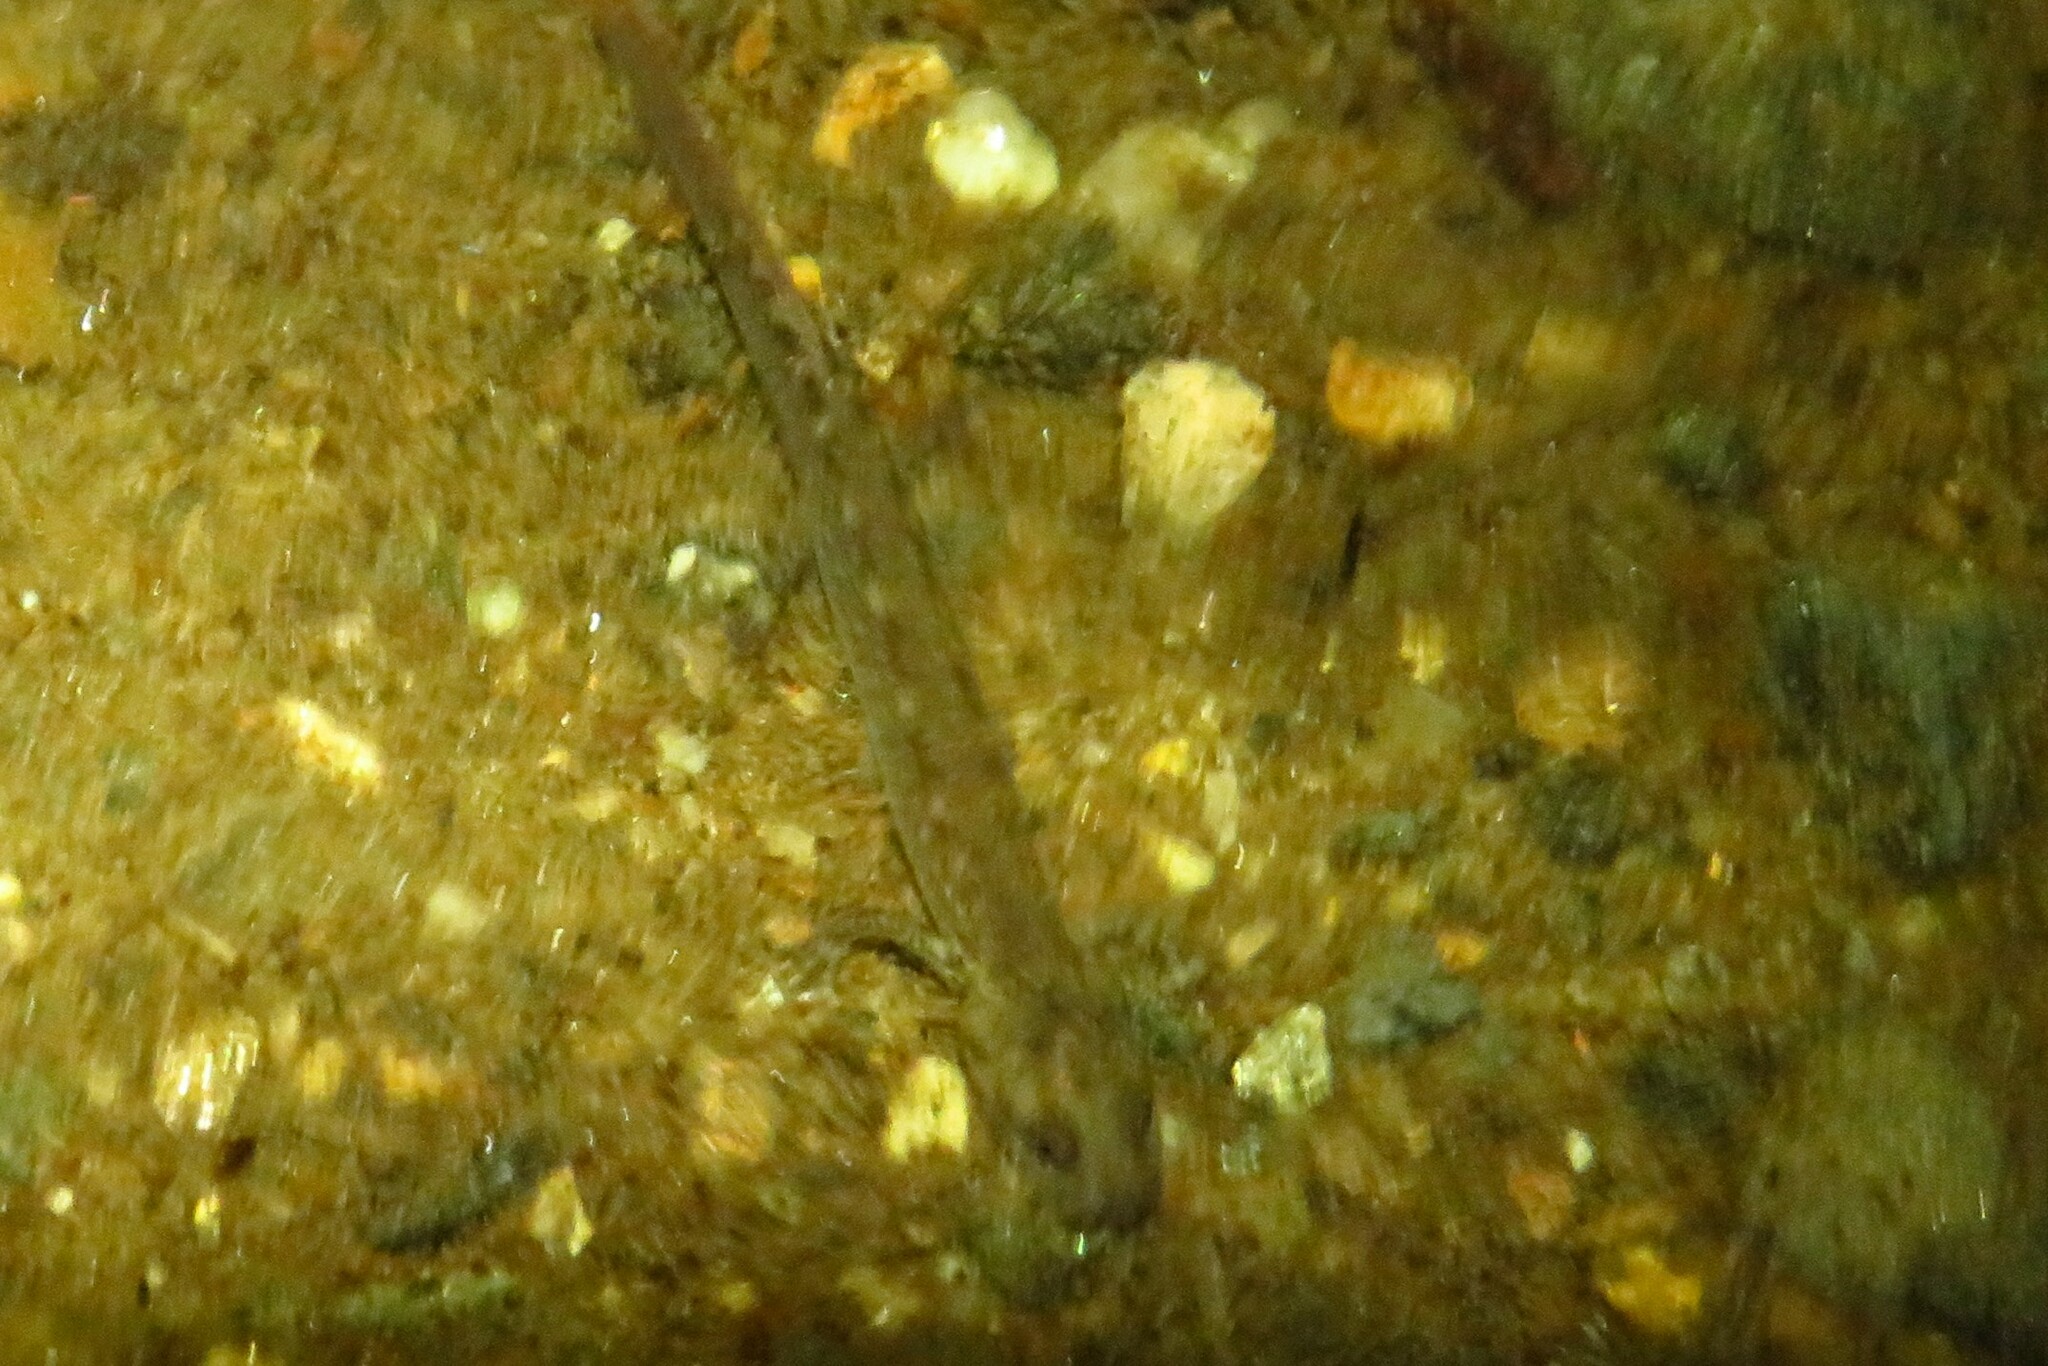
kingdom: Animalia
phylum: Chordata
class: Amphibia
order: Caudata
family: Plethodontidae
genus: Eurycea
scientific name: Eurycea bislineata
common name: Northern two-lined salamander
